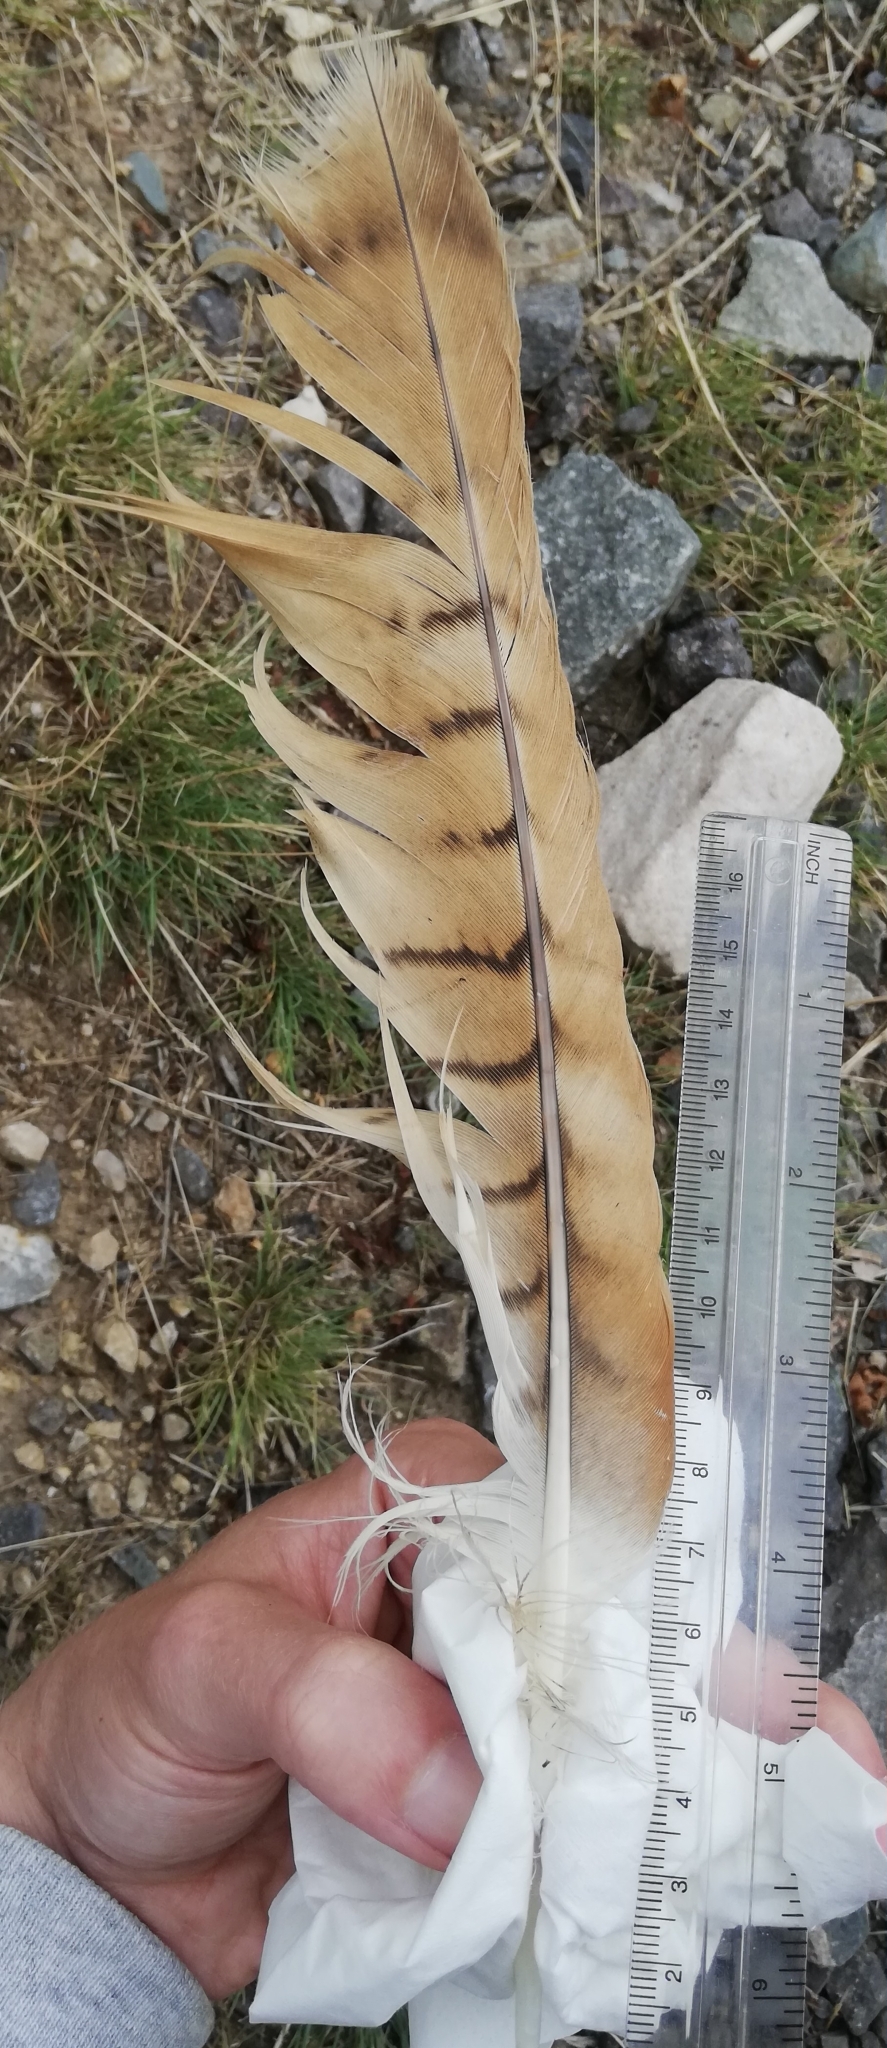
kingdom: Animalia
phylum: Chordata
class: Aves
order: Accipitriformes
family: Accipitridae
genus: Milvus
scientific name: Milvus milvus
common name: Red kite
